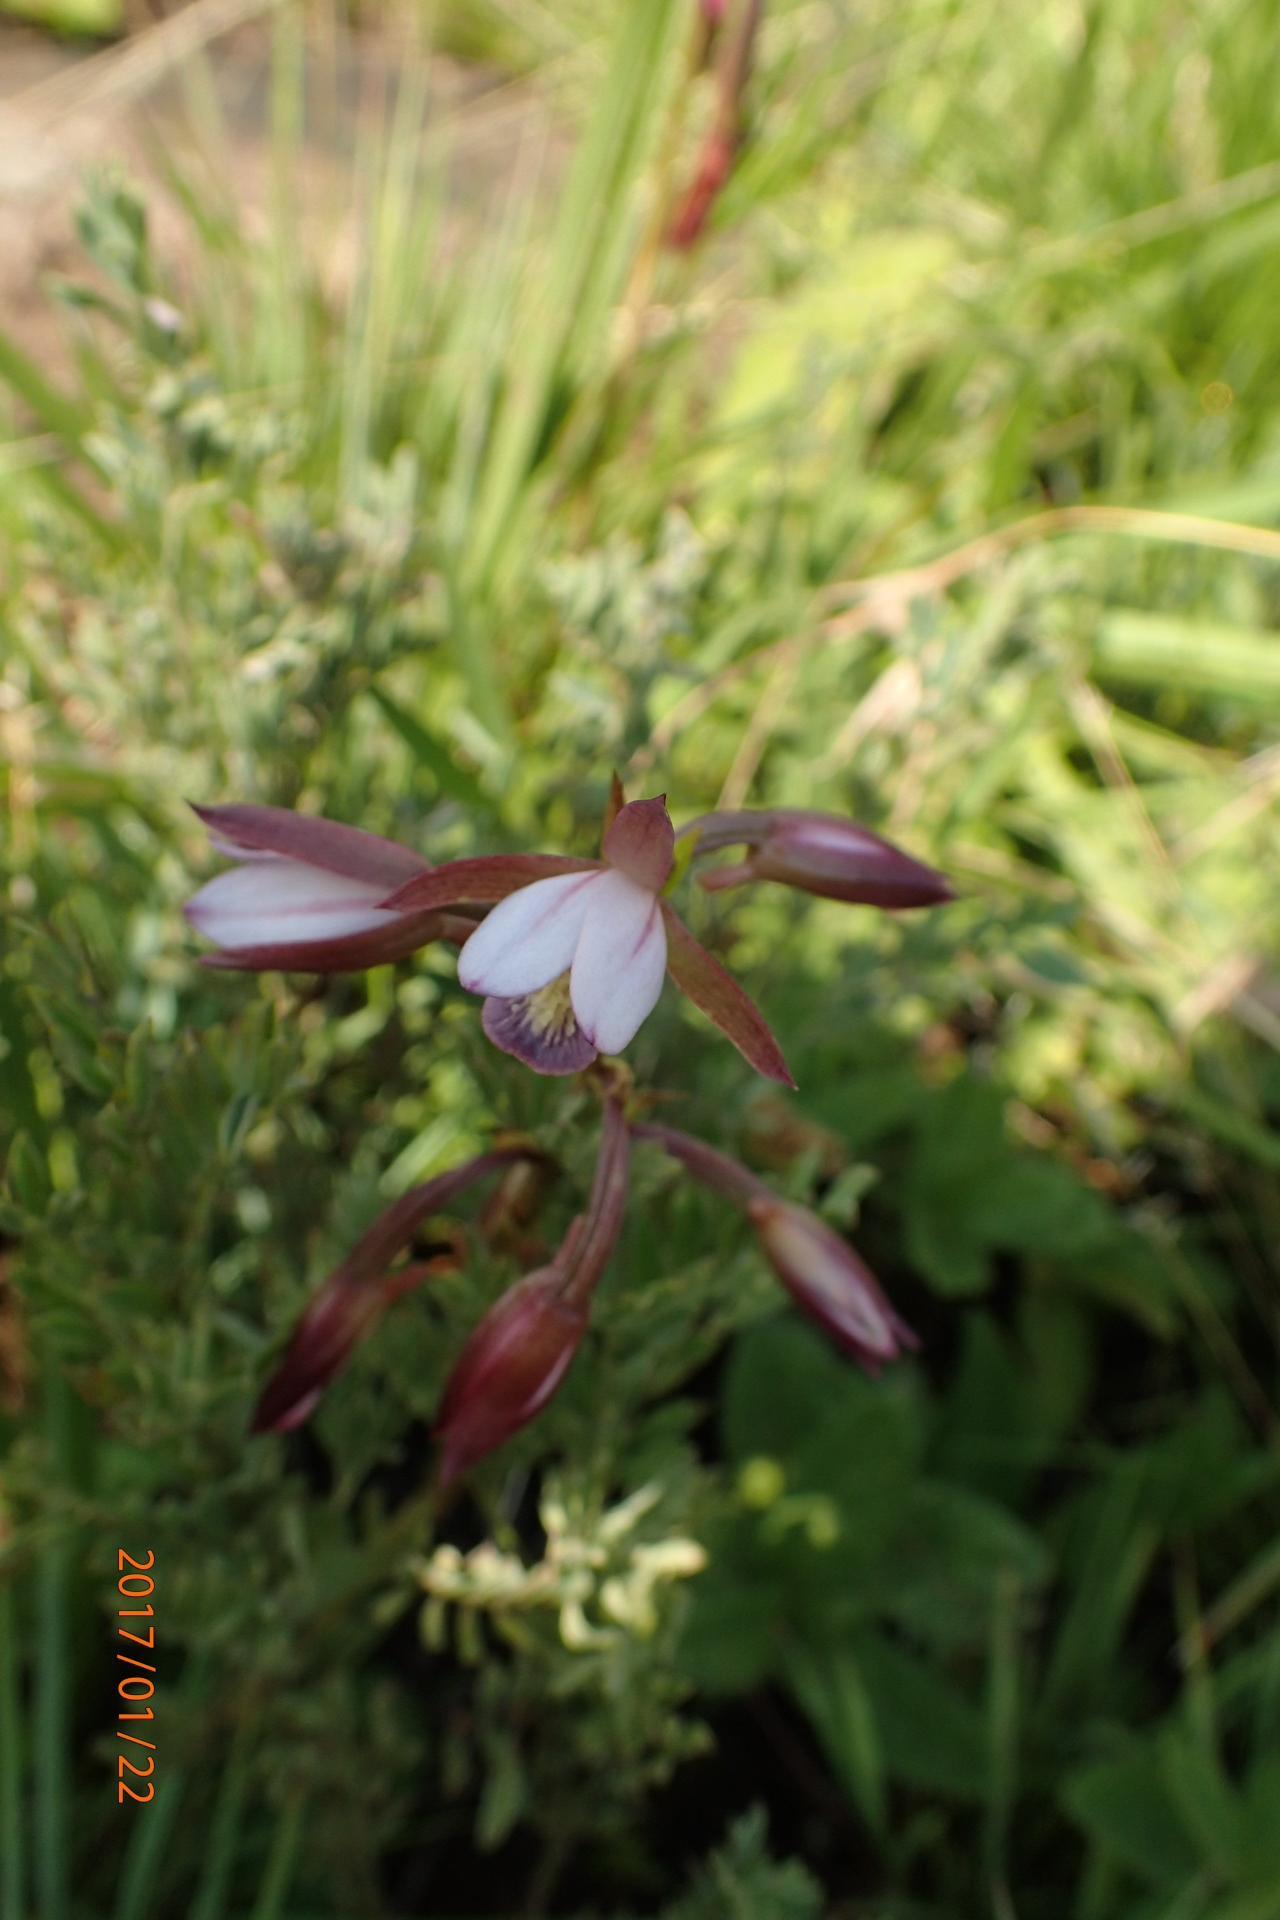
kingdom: Plantae
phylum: Tracheophyta
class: Liliopsida
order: Asparagales
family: Orchidaceae
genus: Eulophia
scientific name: Eulophia hians
